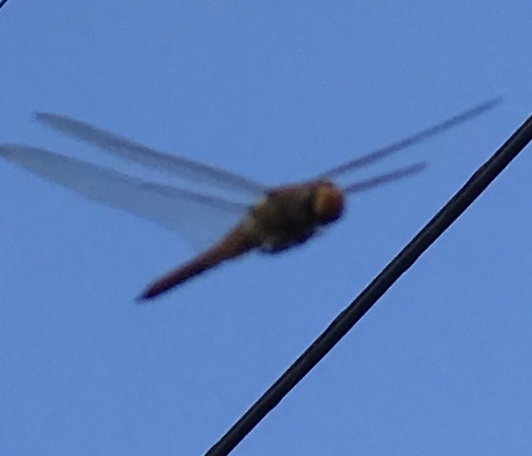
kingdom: Animalia
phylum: Arthropoda
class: Insecta
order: Odonata
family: Libellulidae
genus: Pantala
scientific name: Pantala flavescens
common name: Wandering glider
